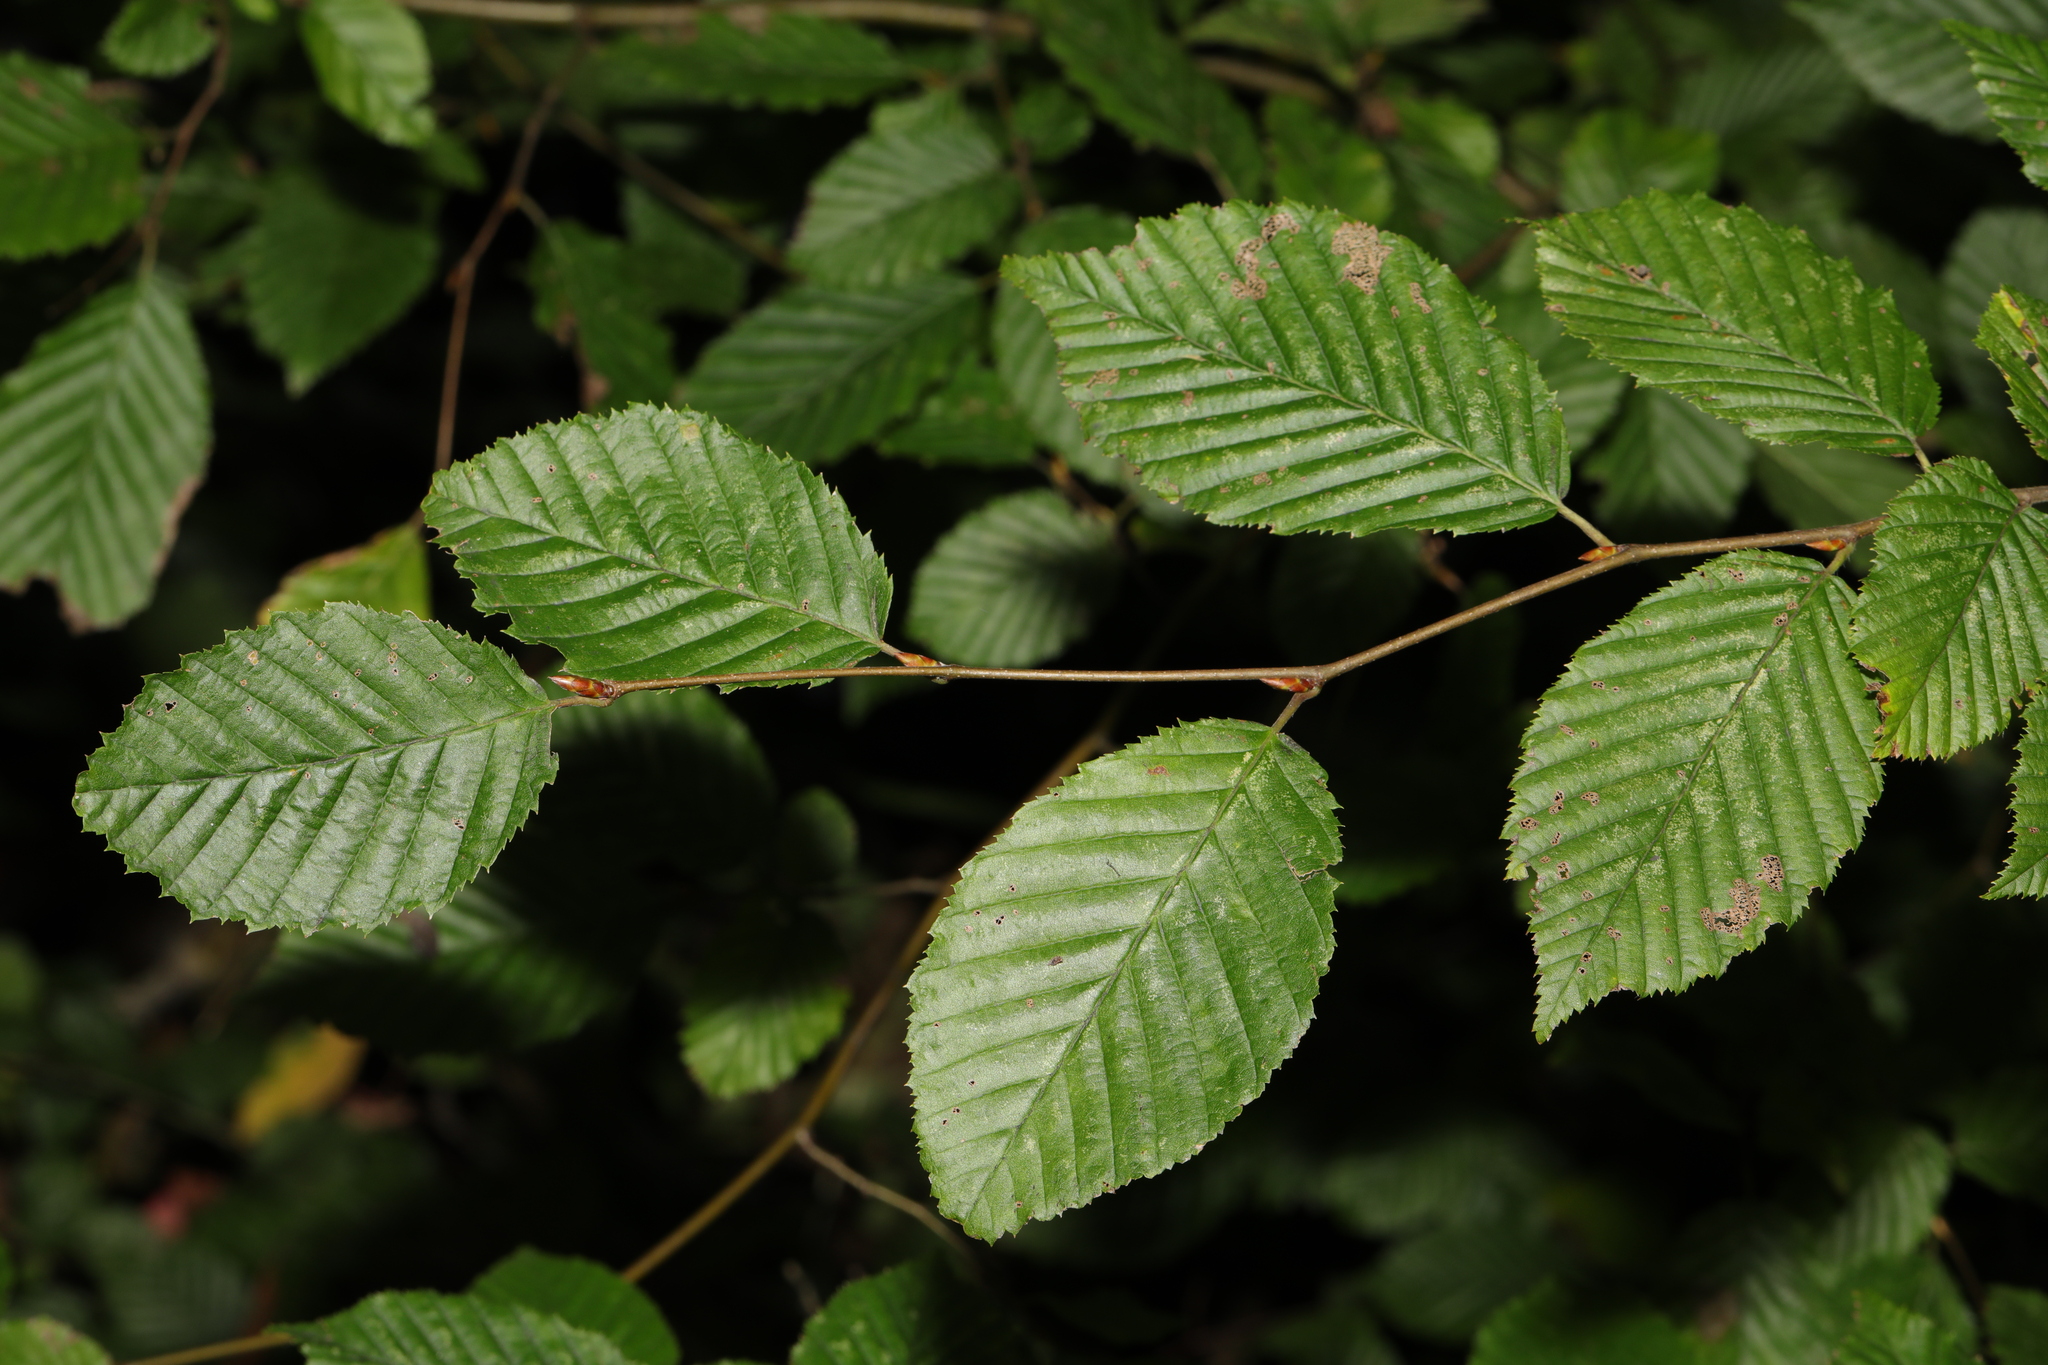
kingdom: Plantae
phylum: Tracheophyta
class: Magnoliopsida
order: Fagales
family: Betulaceae
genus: Carpinus
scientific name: Carpinus betulus
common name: Hornbeam
